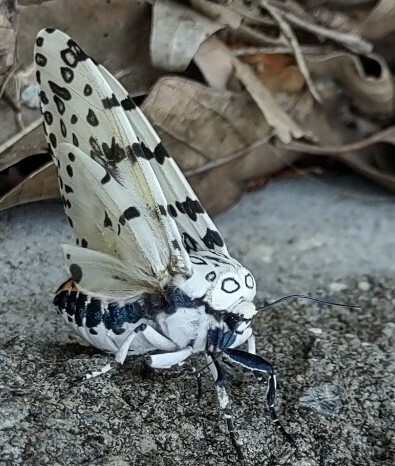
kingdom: Animalia
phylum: Arthropoda
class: Insecta
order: Lepidoptera
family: Erebidae
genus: Hypercompe
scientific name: Hypercompe scribonia
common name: Giant leopard moth
